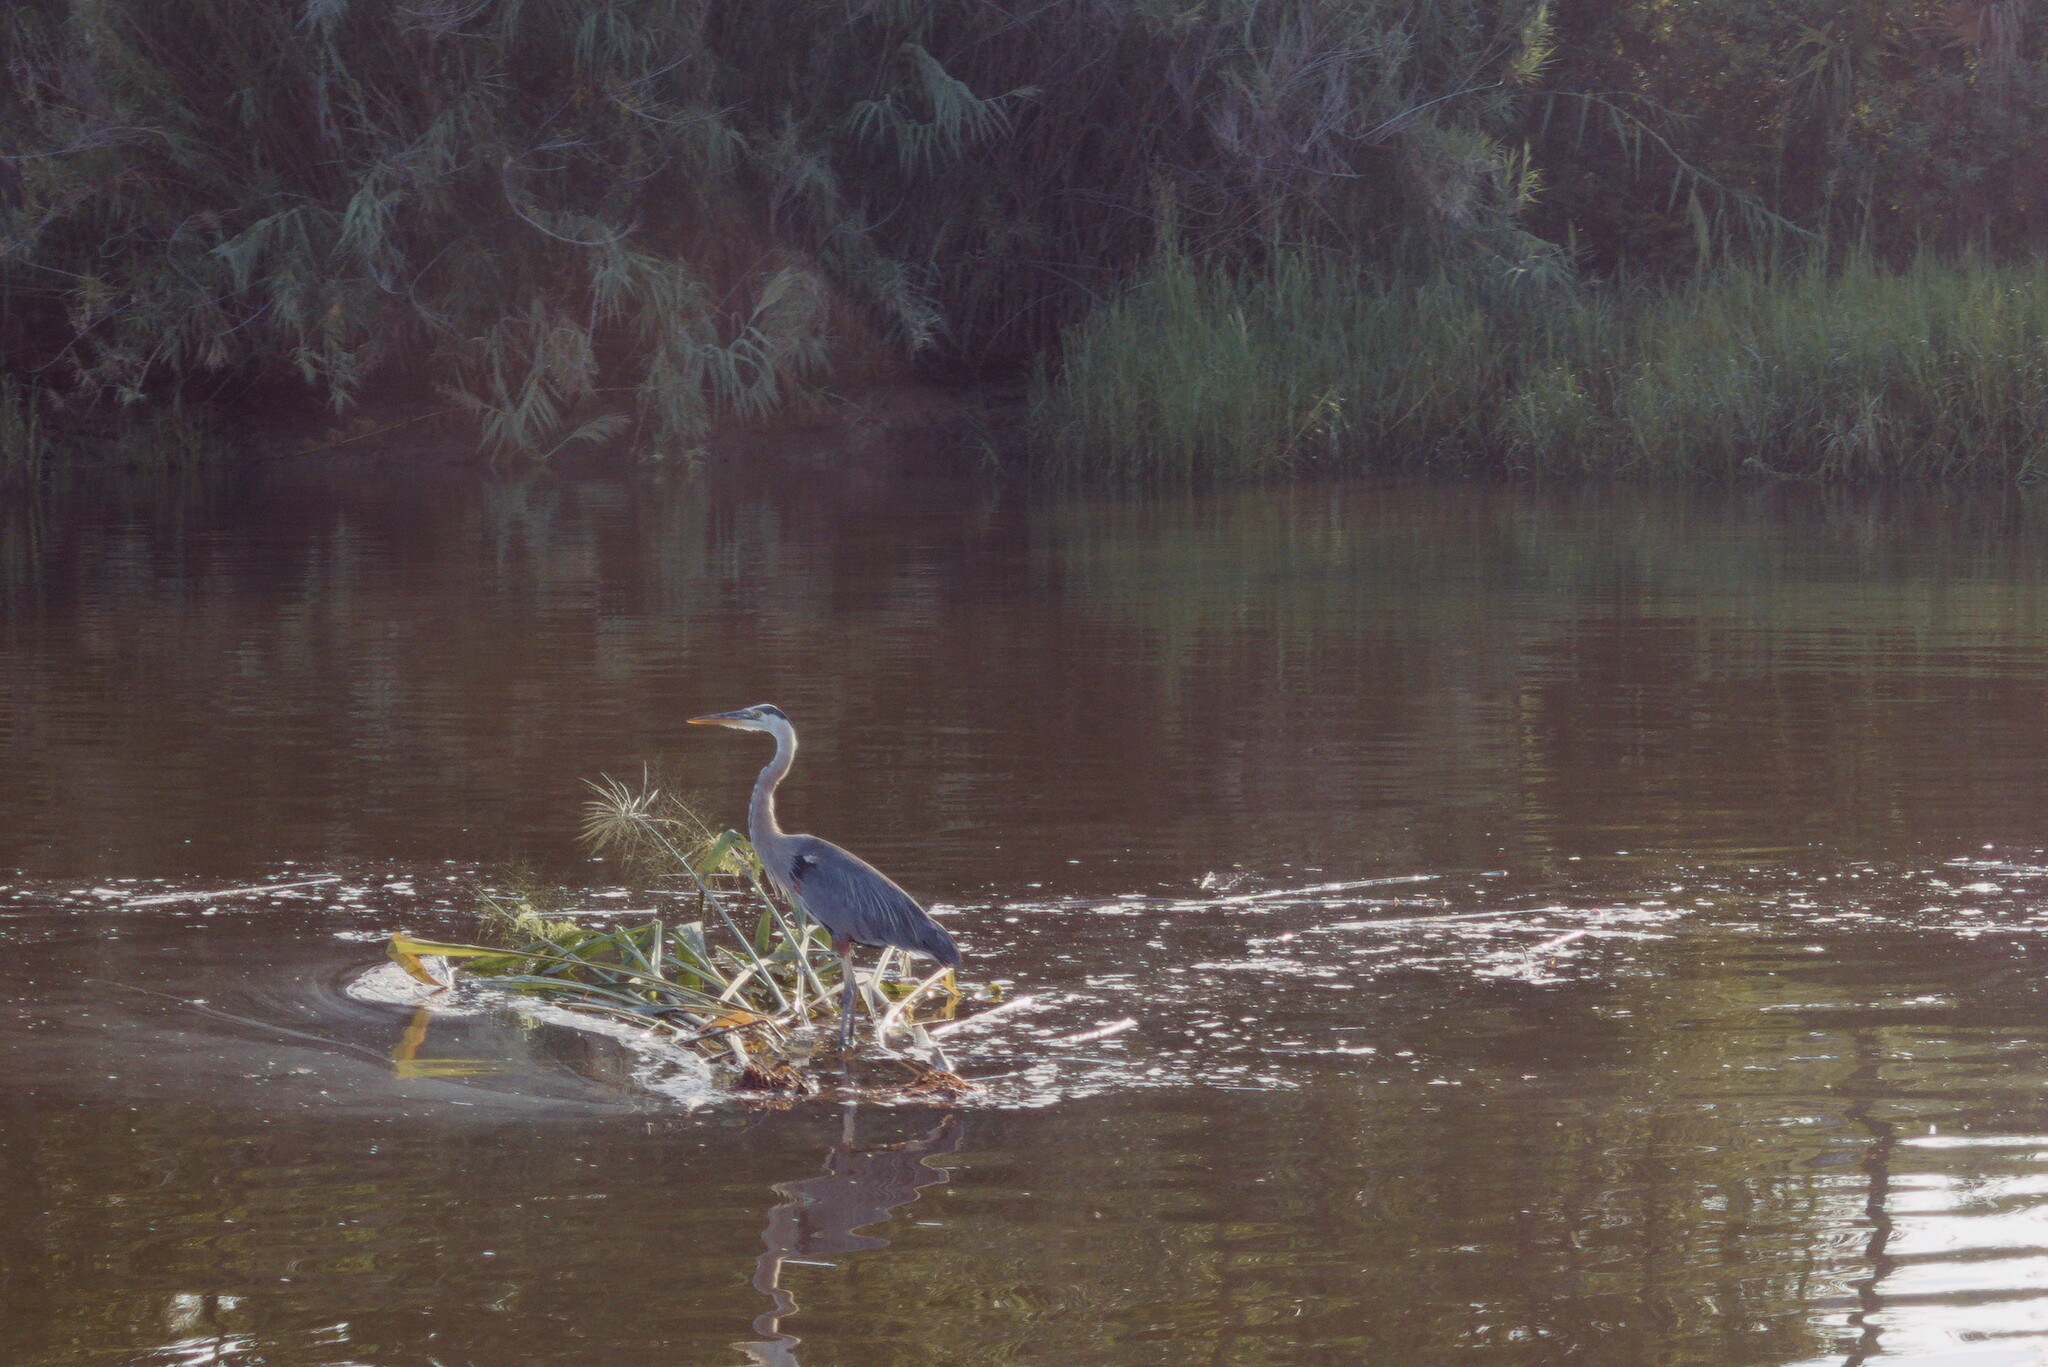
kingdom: Animalia
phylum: Chordata
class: Aves
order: Pelecaniformes
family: Ardeidae
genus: Ardea
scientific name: Ardea herodias
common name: Great blue heron
